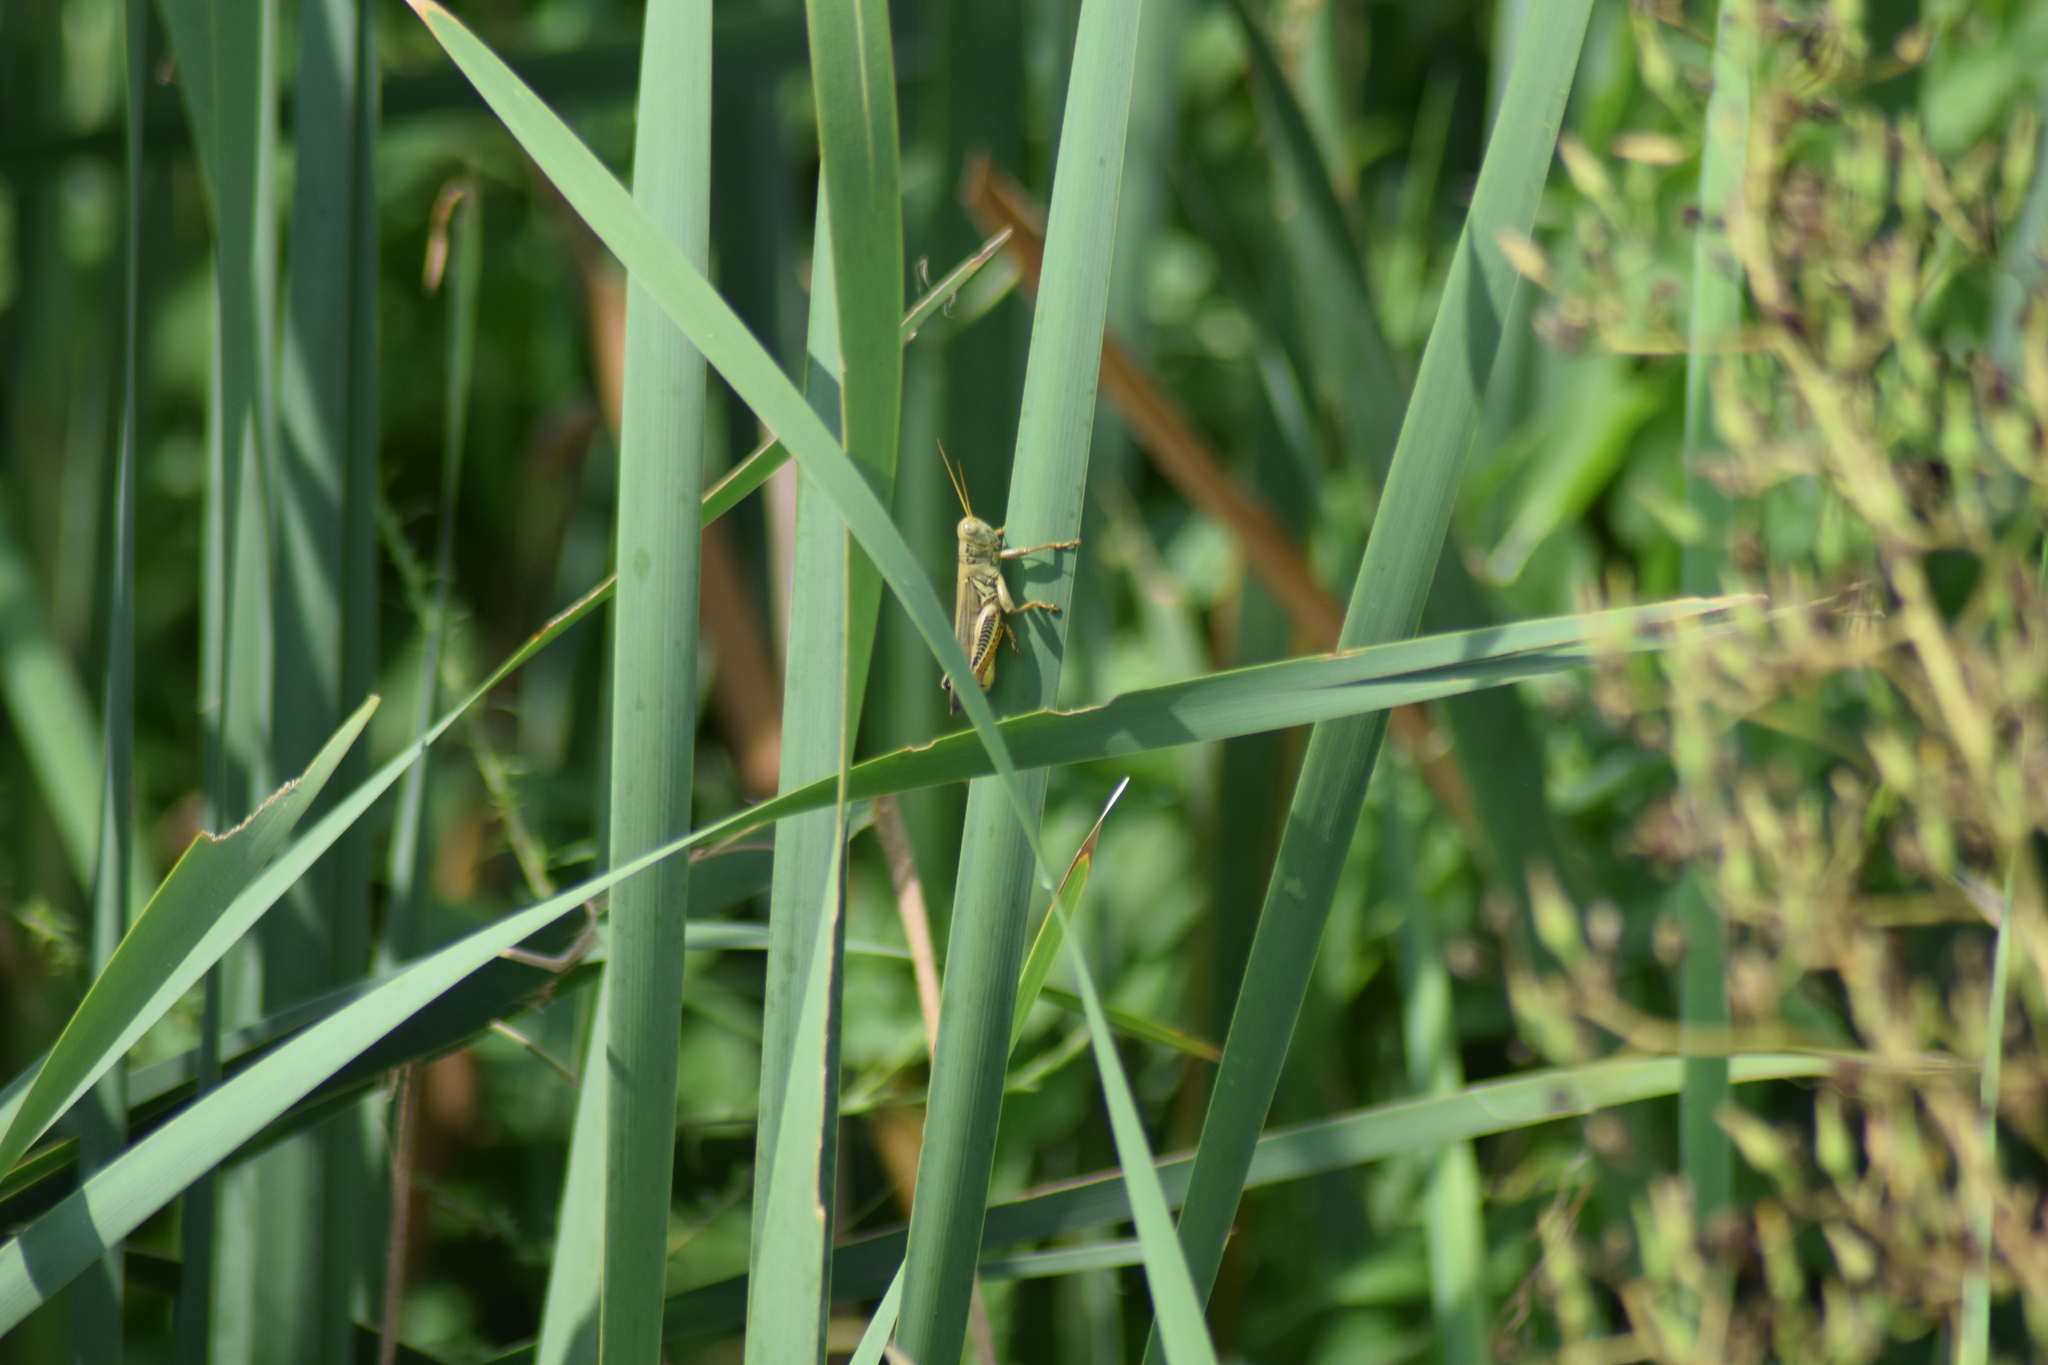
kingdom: Animalia
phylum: Arthropoda
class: Insecta
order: Orthoptera
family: Acrididae
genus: Melanoplus
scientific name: Melanoplus differentialis
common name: Differential grasshopper
